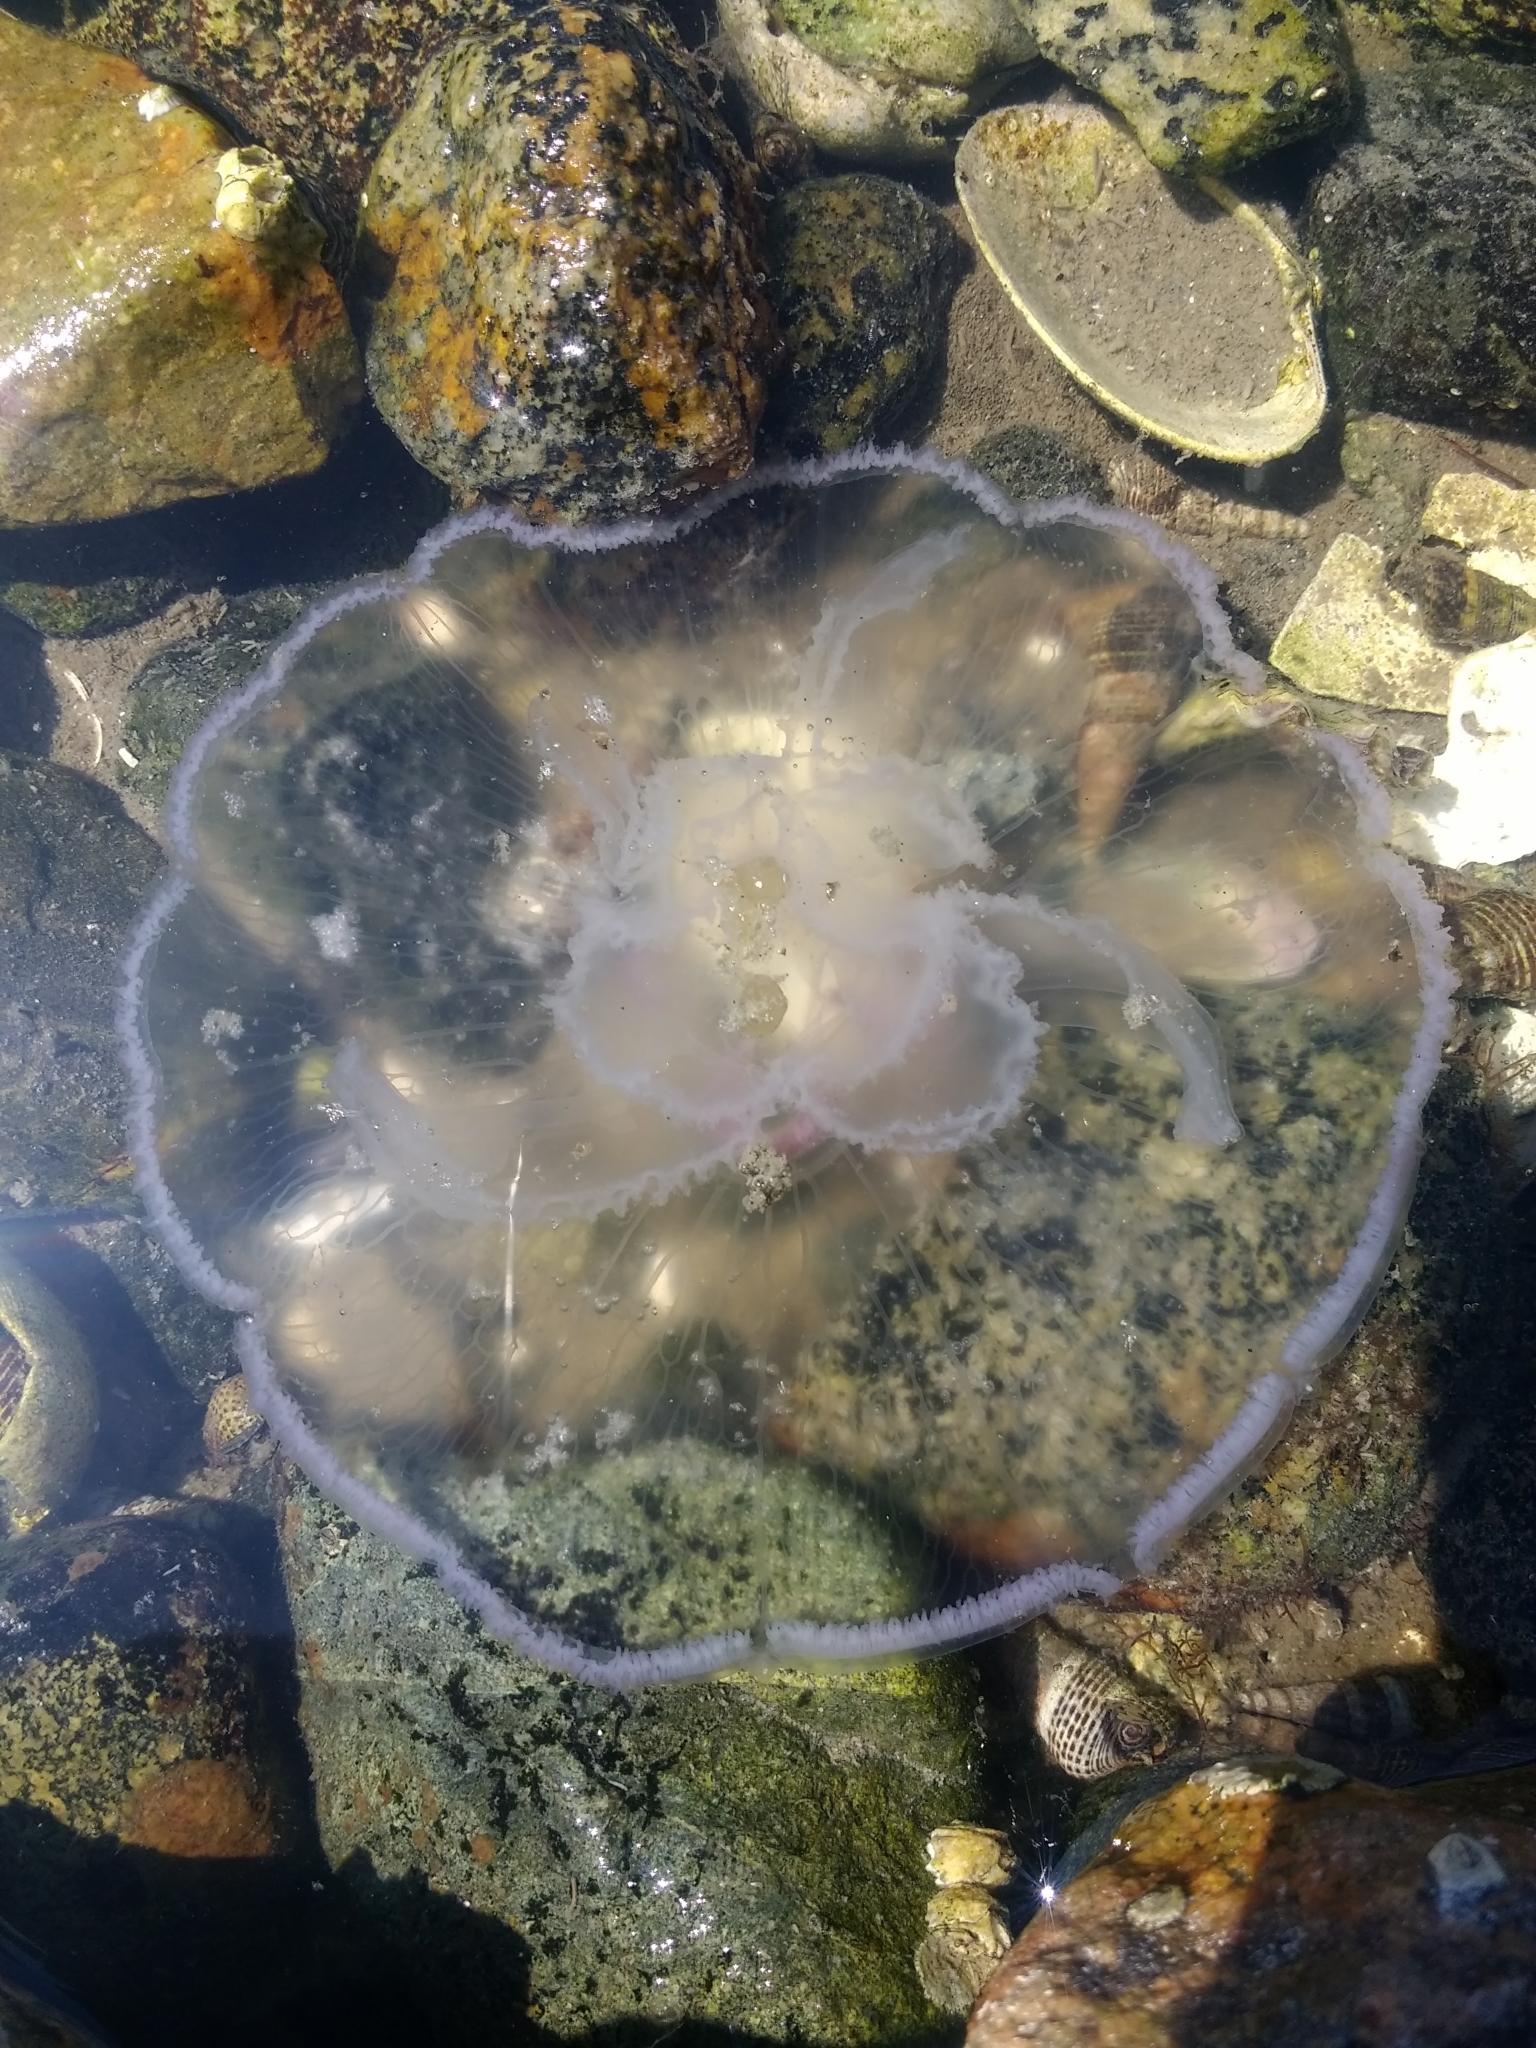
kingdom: Animalia
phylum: Cnidaria
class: Scyphozoa
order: Semaeostomeae
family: Ulmaridae
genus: Aurelia
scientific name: Aurelia labiata
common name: Pacific moon jelly
